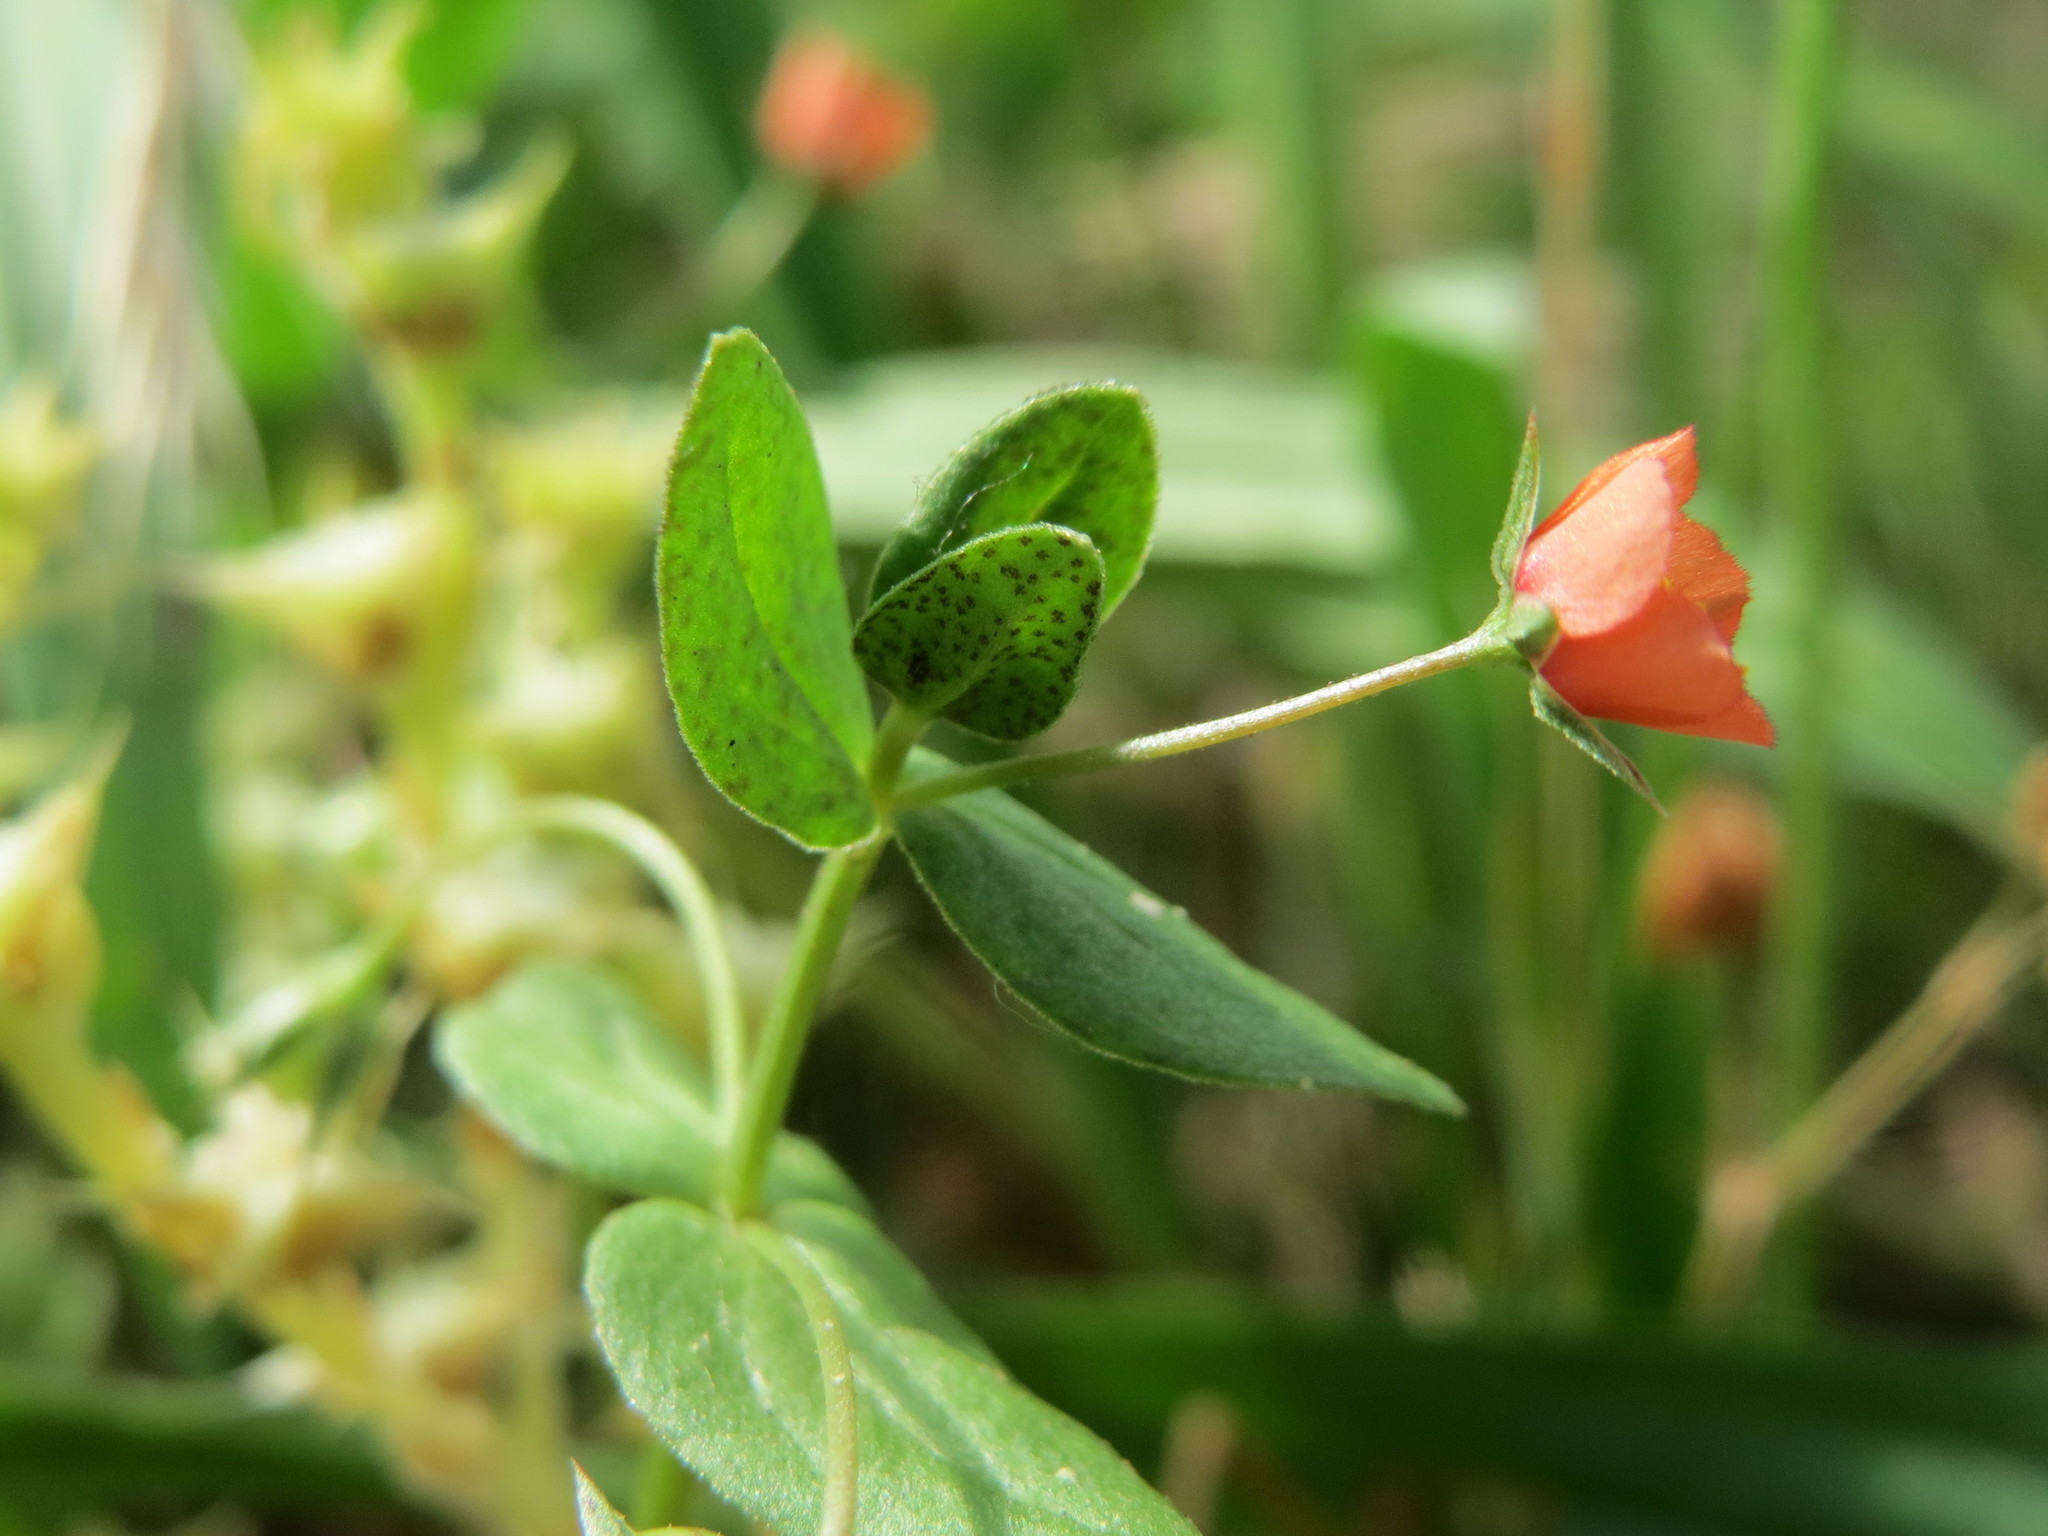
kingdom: Plantae
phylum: Tracheophyta
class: Magnoliopsida
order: Ericales
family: Primulaceae
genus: Lysimachia
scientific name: Lysimachia arvensis
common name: Scarlet pimpernel
